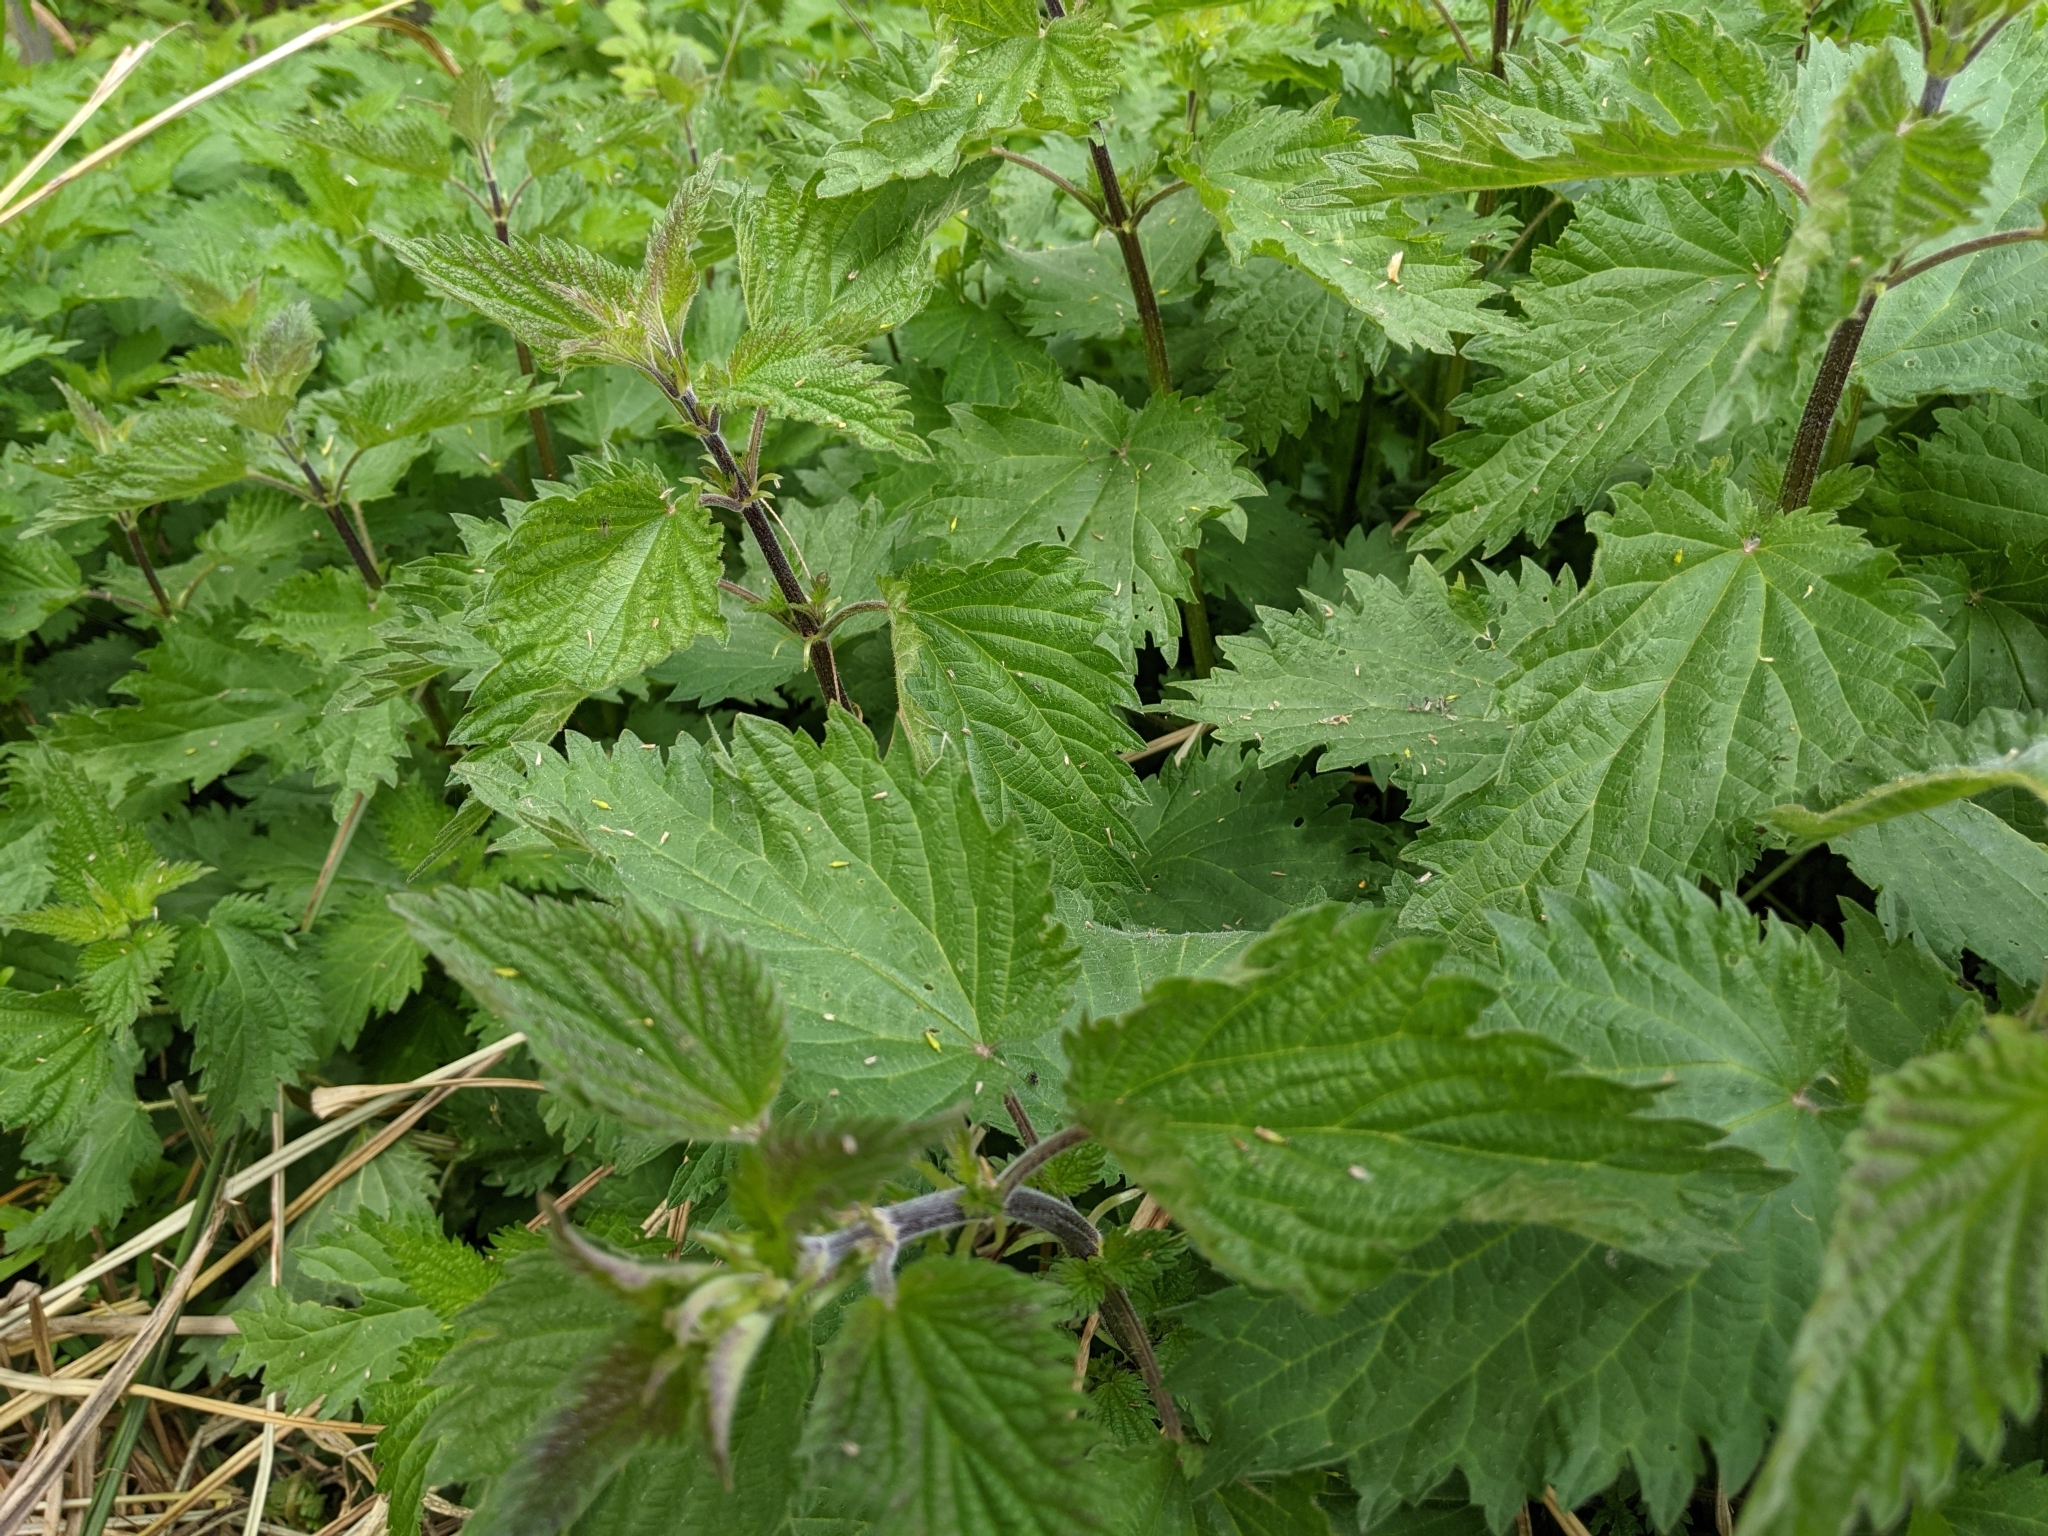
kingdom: Plantae
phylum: Tracheophyta
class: Magnoliopsida
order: Rosales
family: Urticaceae
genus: Urtica
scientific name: Urtica dioica
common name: Common nettle
